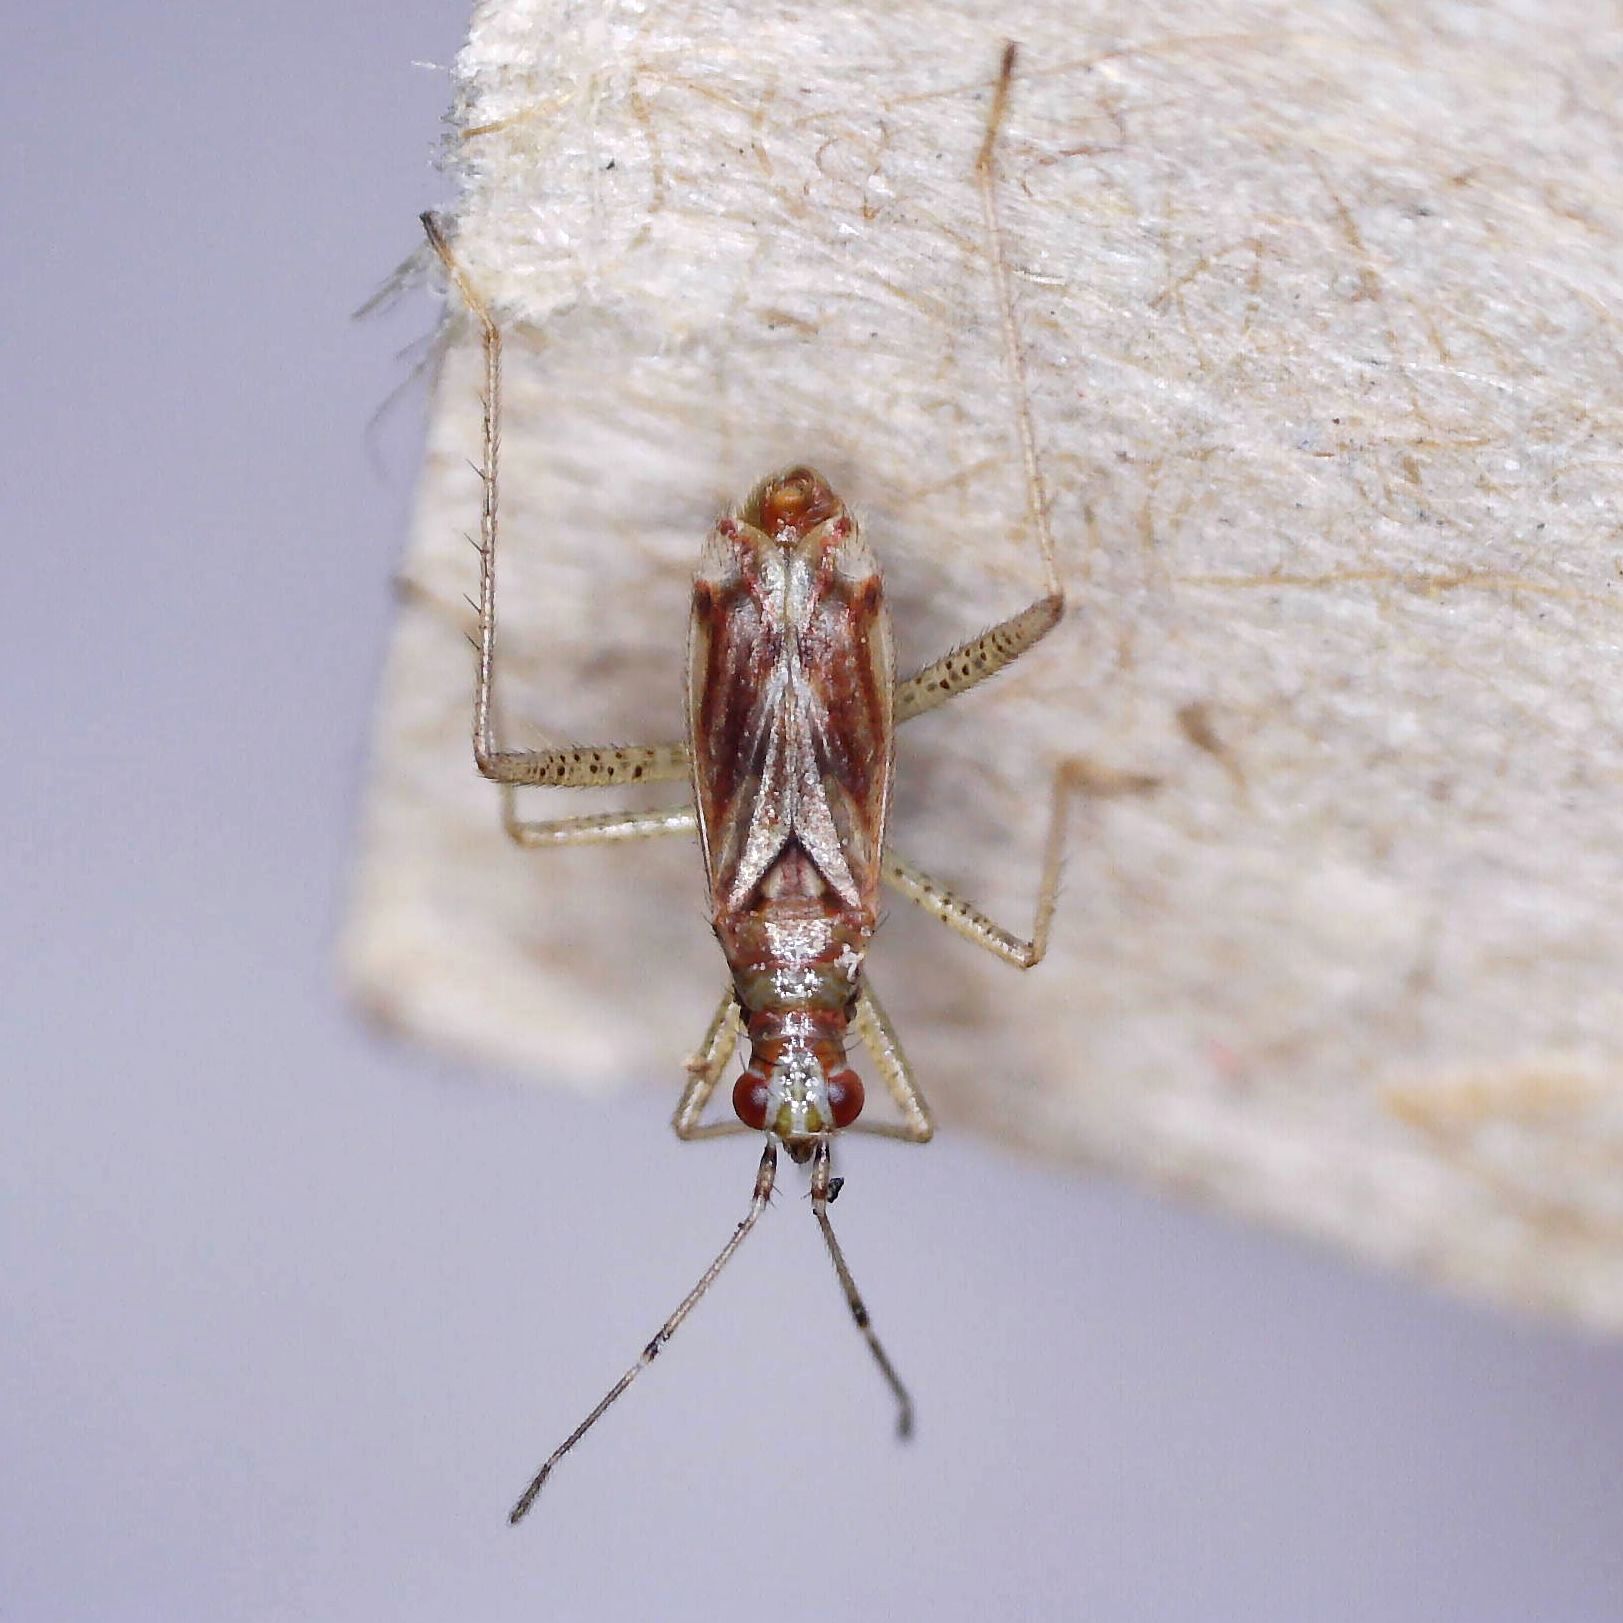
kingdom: Animalia
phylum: Arthropoda
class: Insecta
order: Hemiptera
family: Miridae
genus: Dicyphus
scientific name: Dicyphus stachydis
